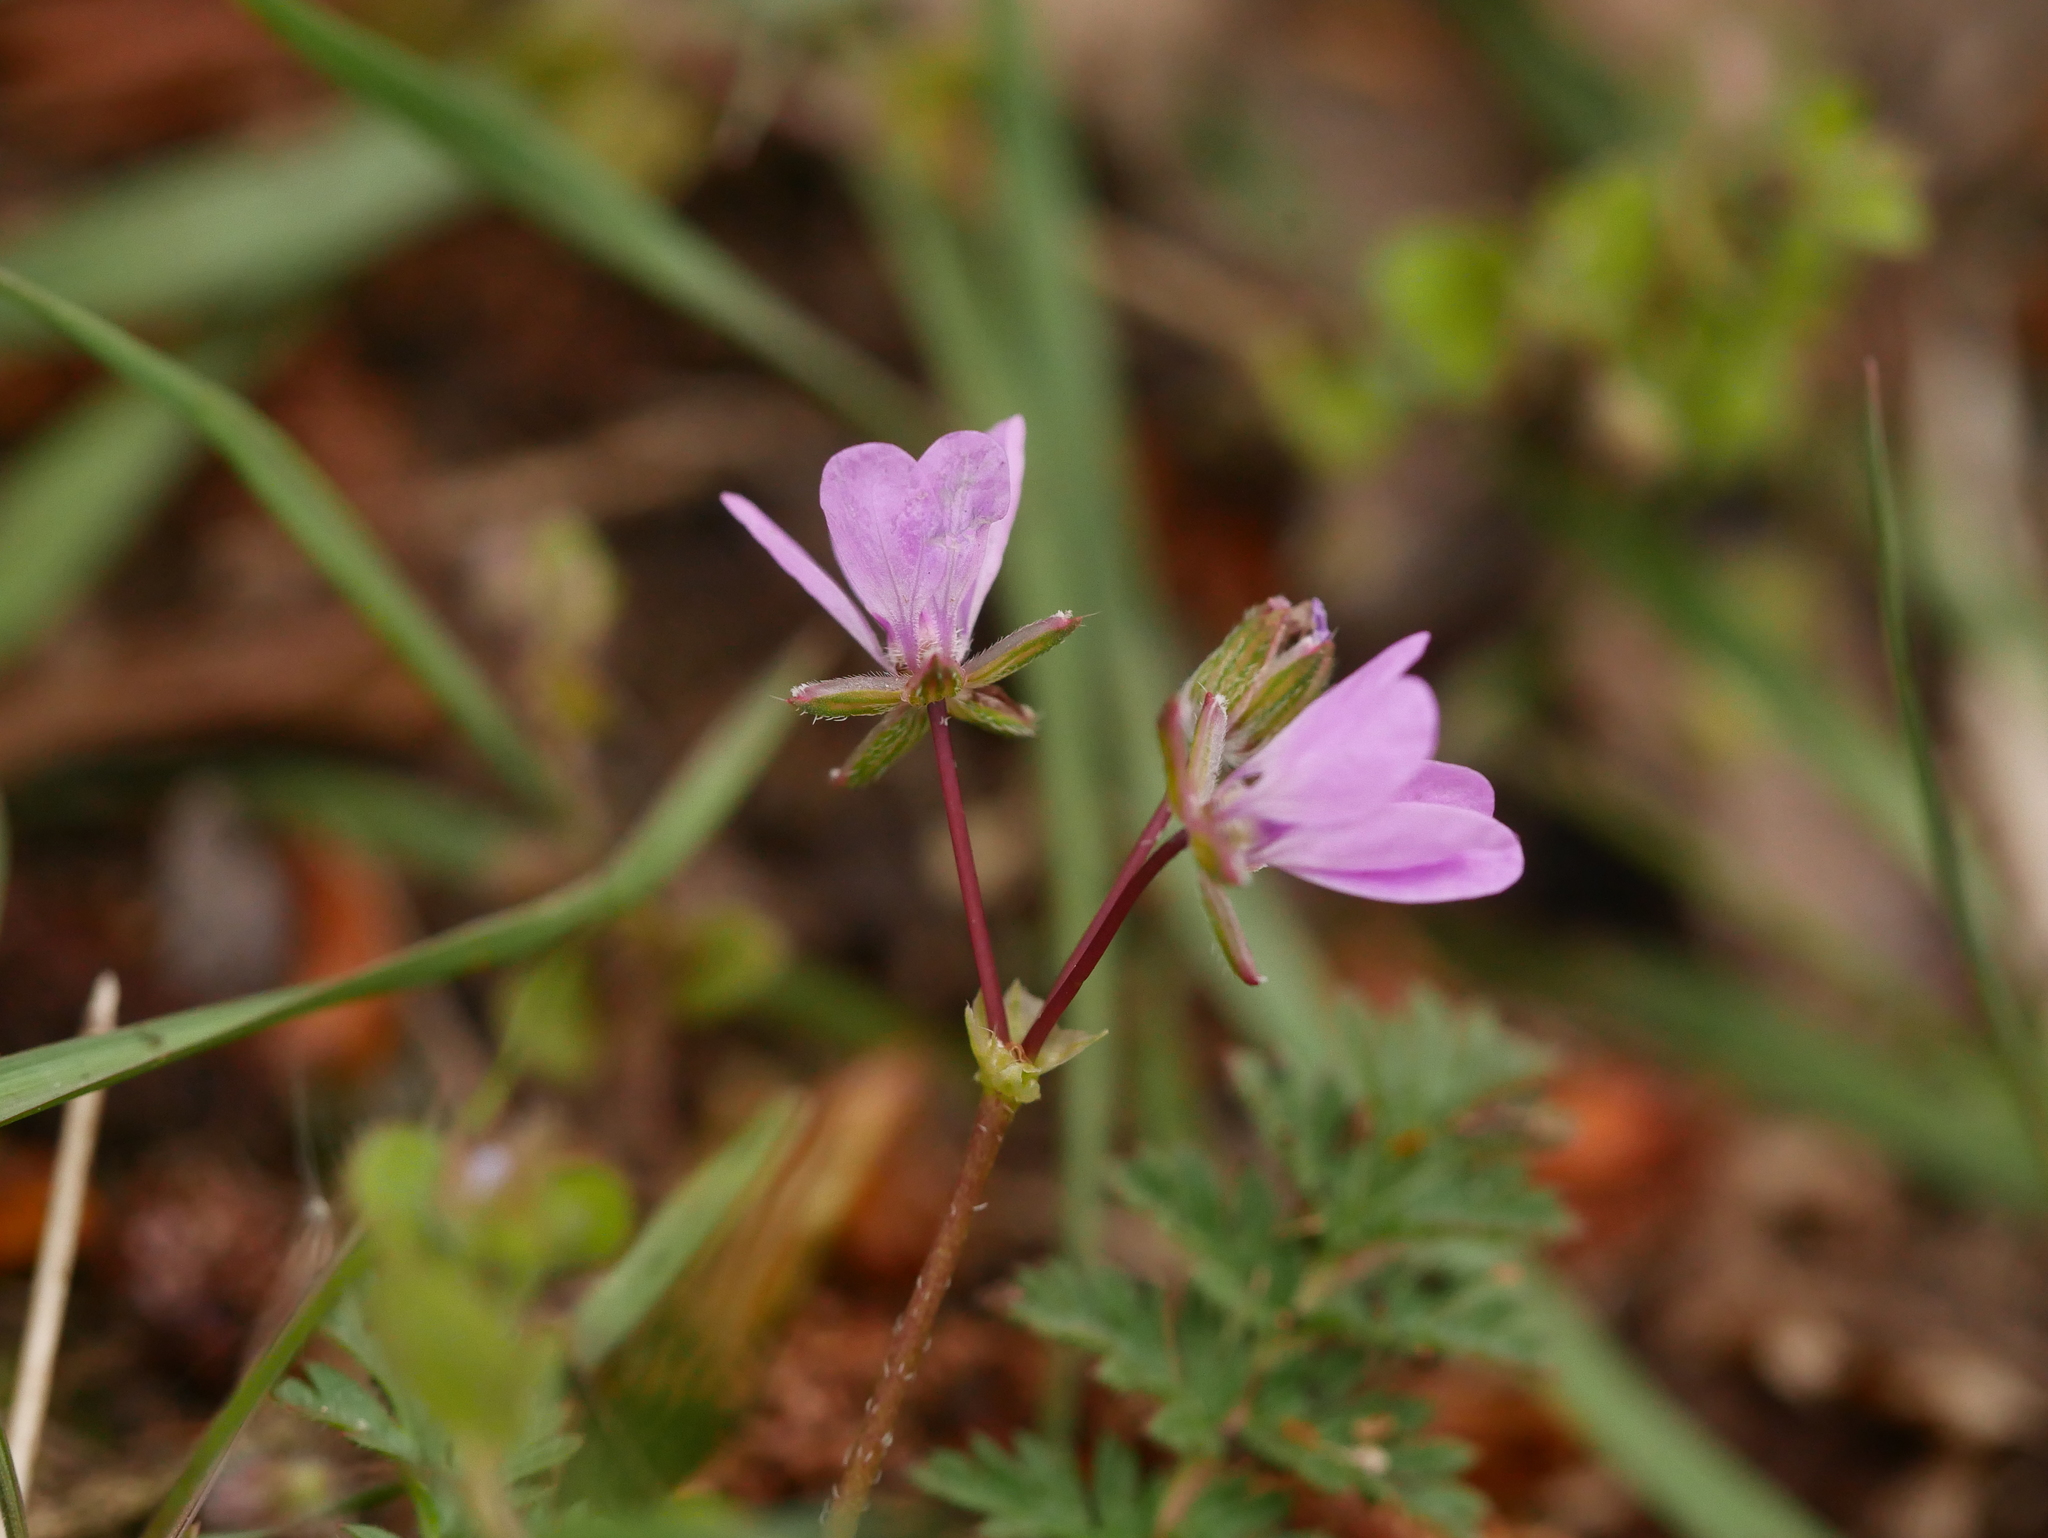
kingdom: Plantae
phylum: Tracheophyta
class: Magnoliopsida
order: Geraniales
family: Geraniaceae
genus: Erodium
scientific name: Erodium cicutarium
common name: Common stork's-bill
